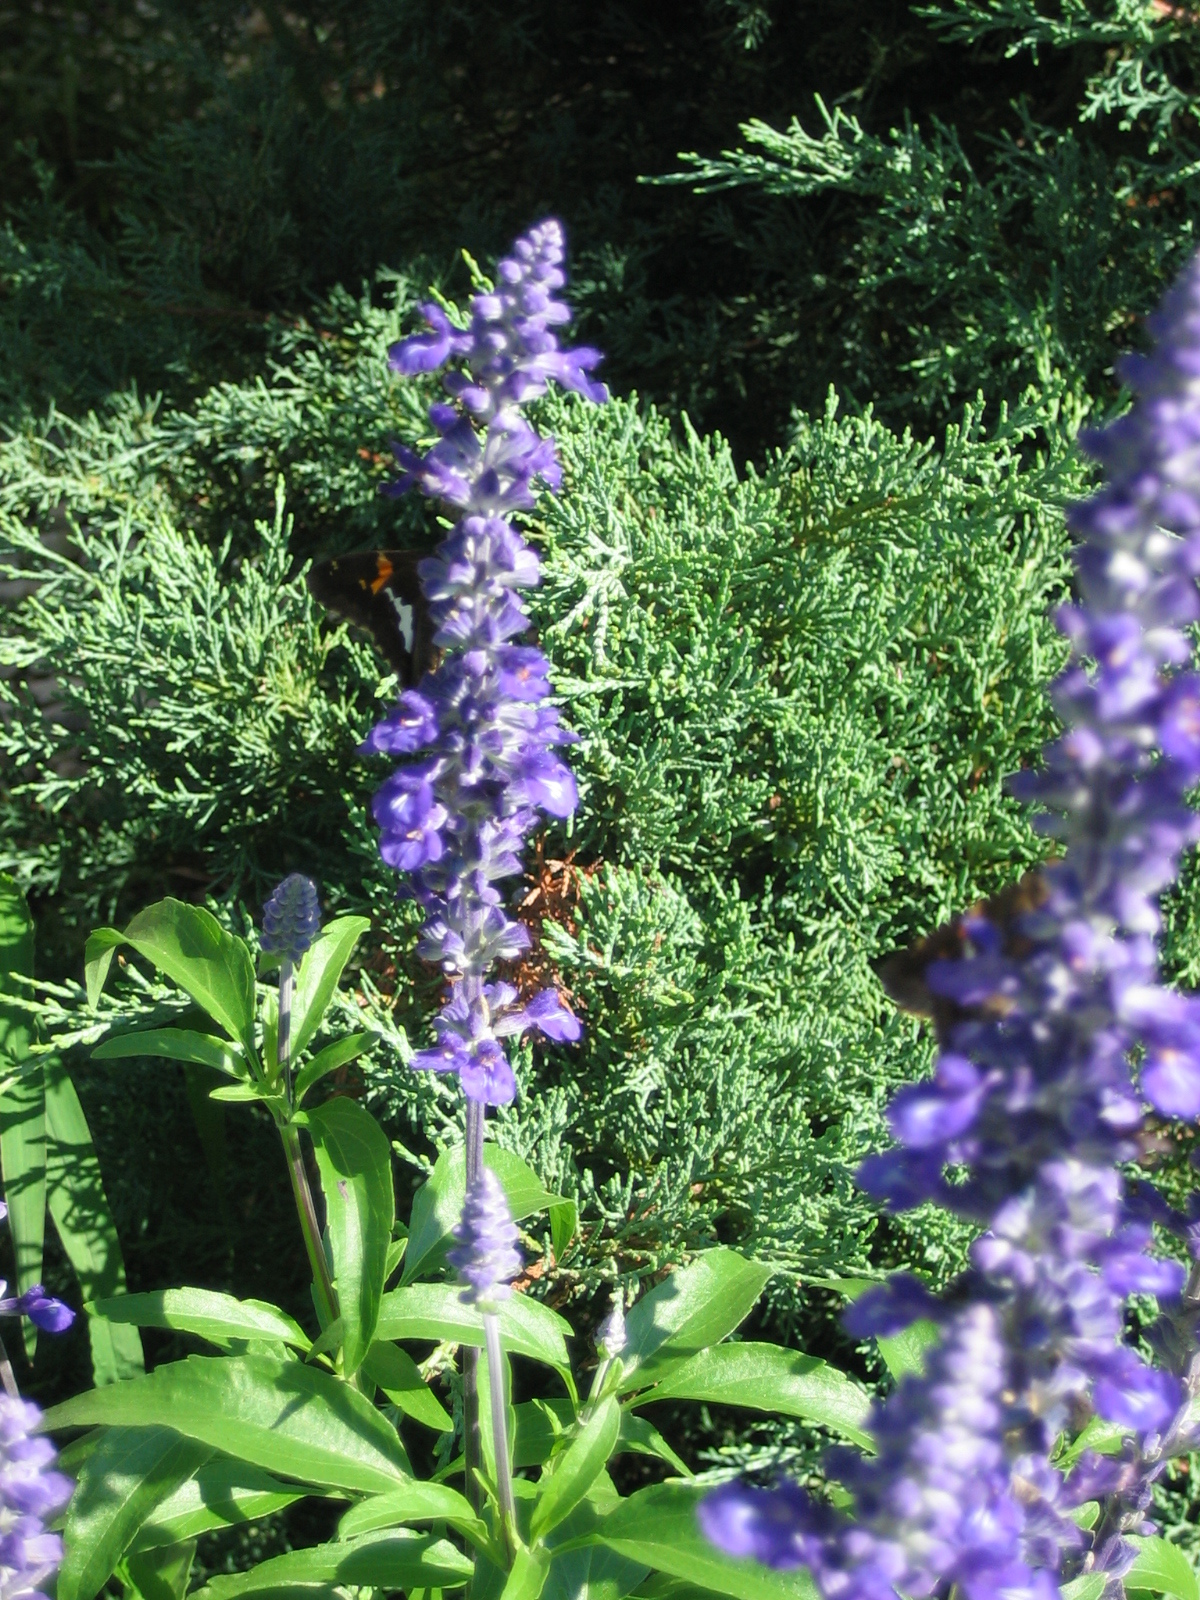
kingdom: Animalia
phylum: Arthropoda
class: Insecta
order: Lepidoptera
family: Hesperiidae
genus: Epargyreus
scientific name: Epargyreus clarus
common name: Silver-spotted skipper
